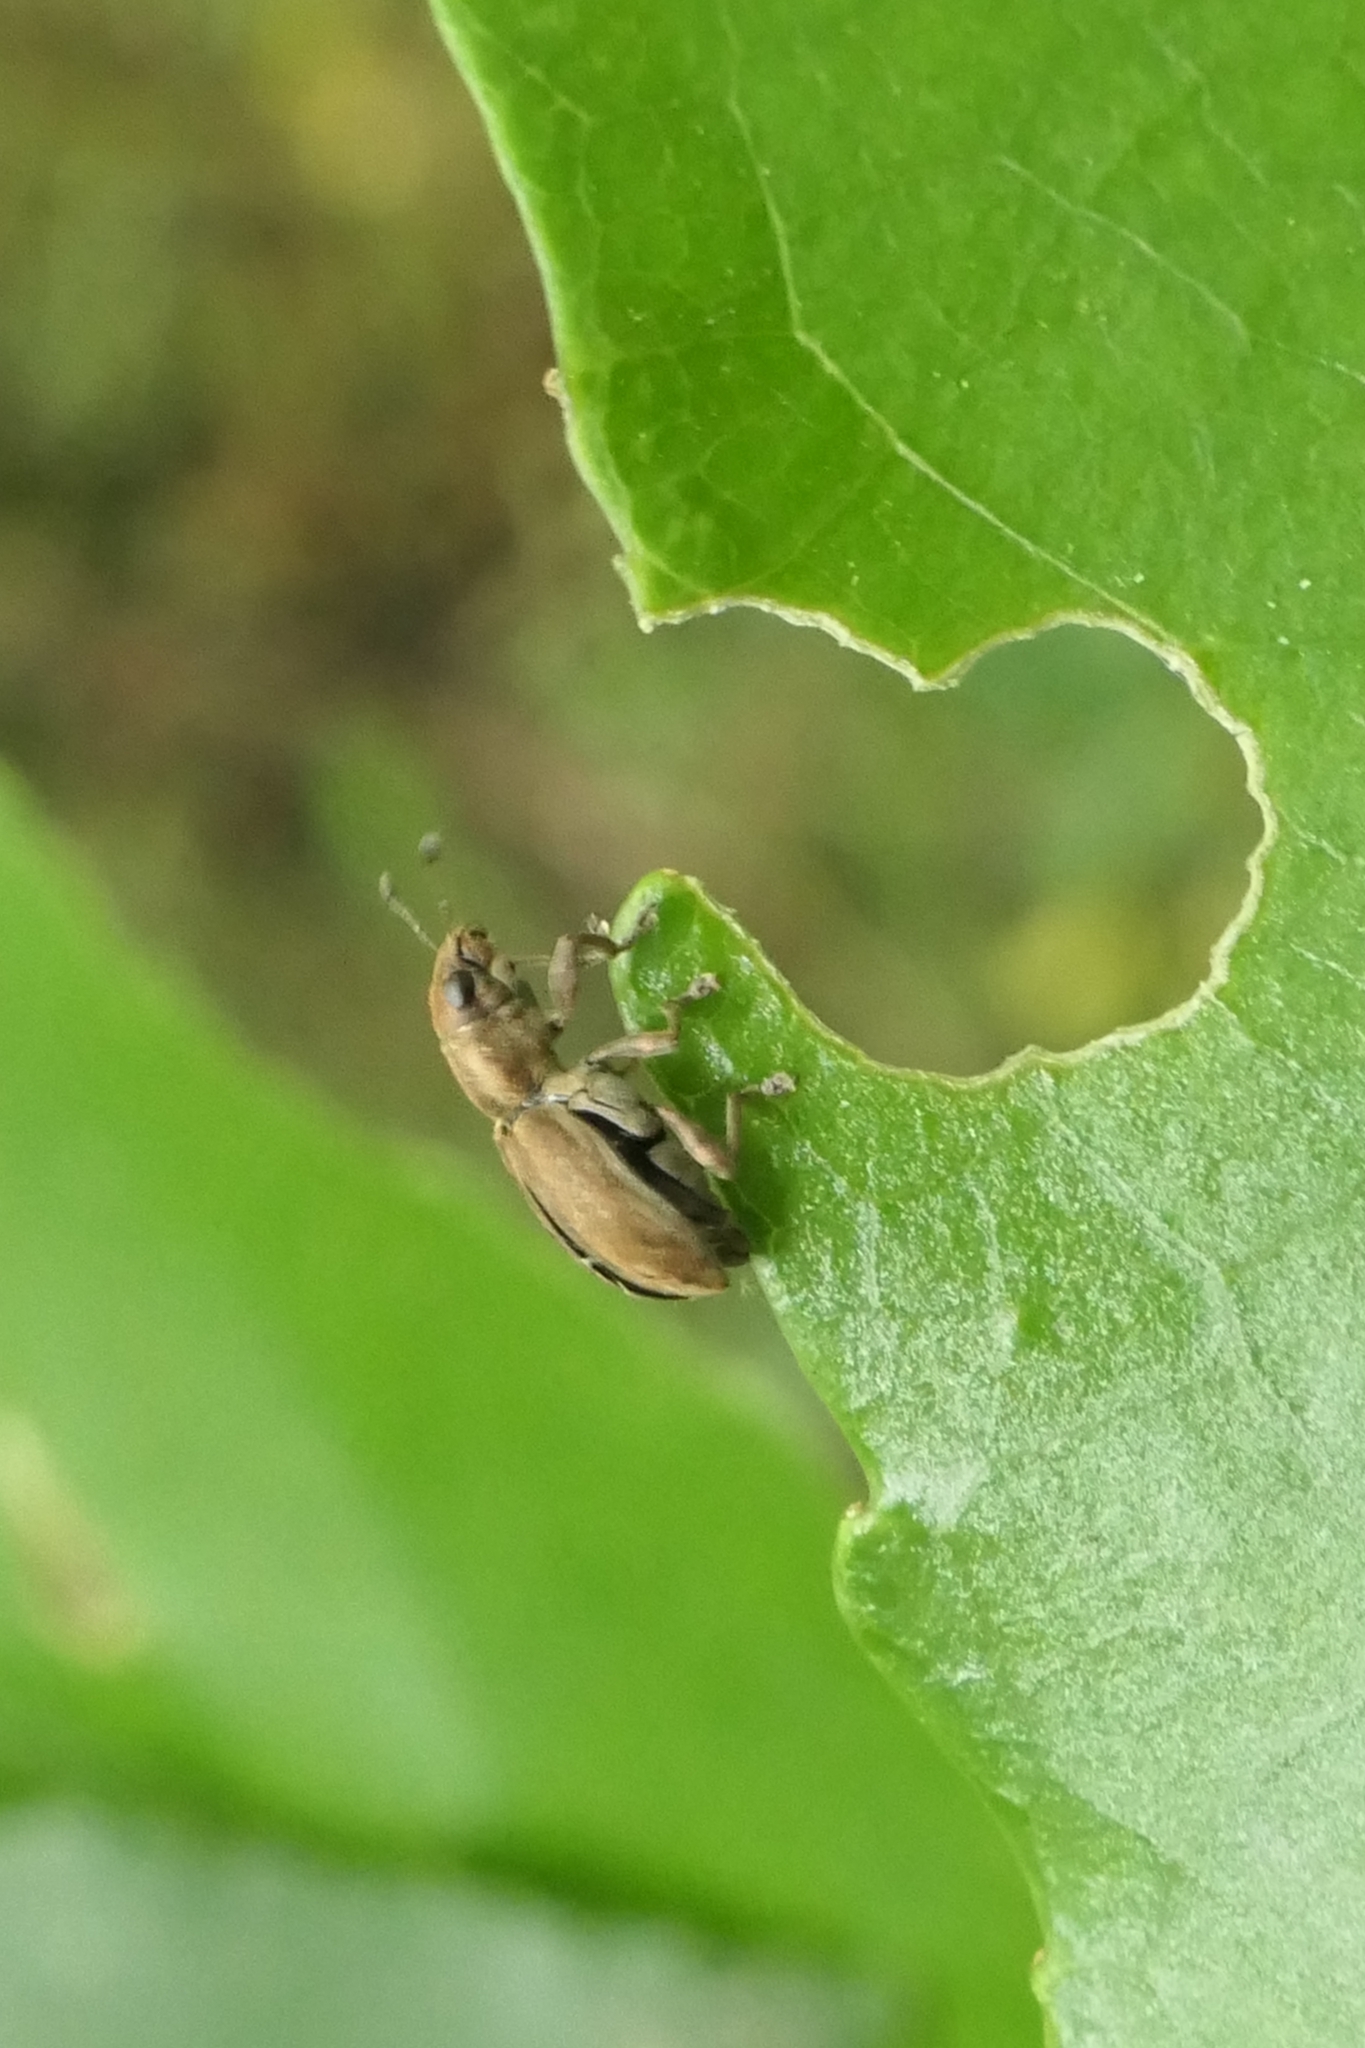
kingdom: Animalia
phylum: Arthropoda
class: Insecta
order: Coleoptera
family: Curculionidae
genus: Sitona
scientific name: Sitona obsoletus
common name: Weevil
